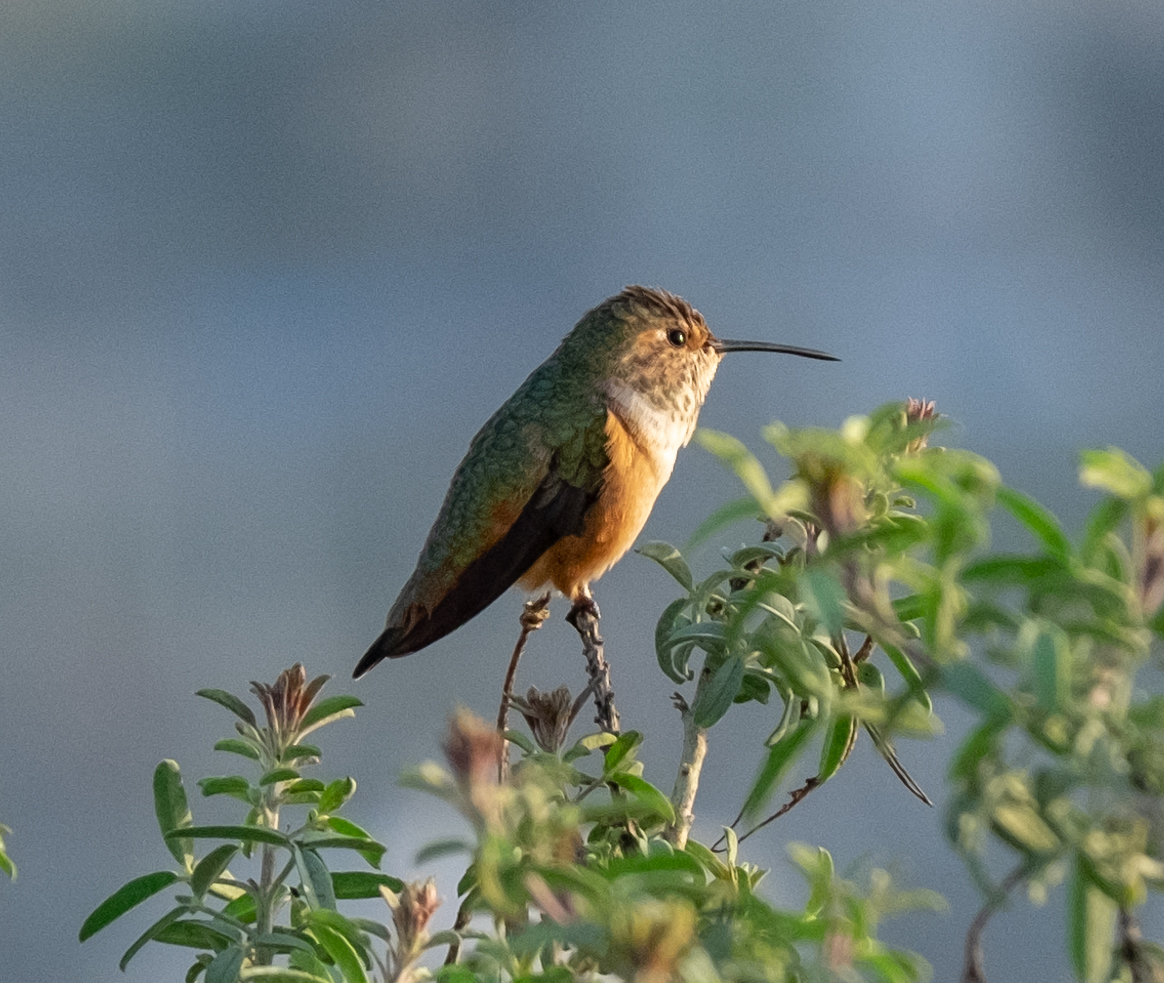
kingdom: Animalia
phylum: Chordata
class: Aves
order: Apodiformes
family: Trochilidae
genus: Selasphorus
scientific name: Selasphorus sasin
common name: Allen's hummingbird
